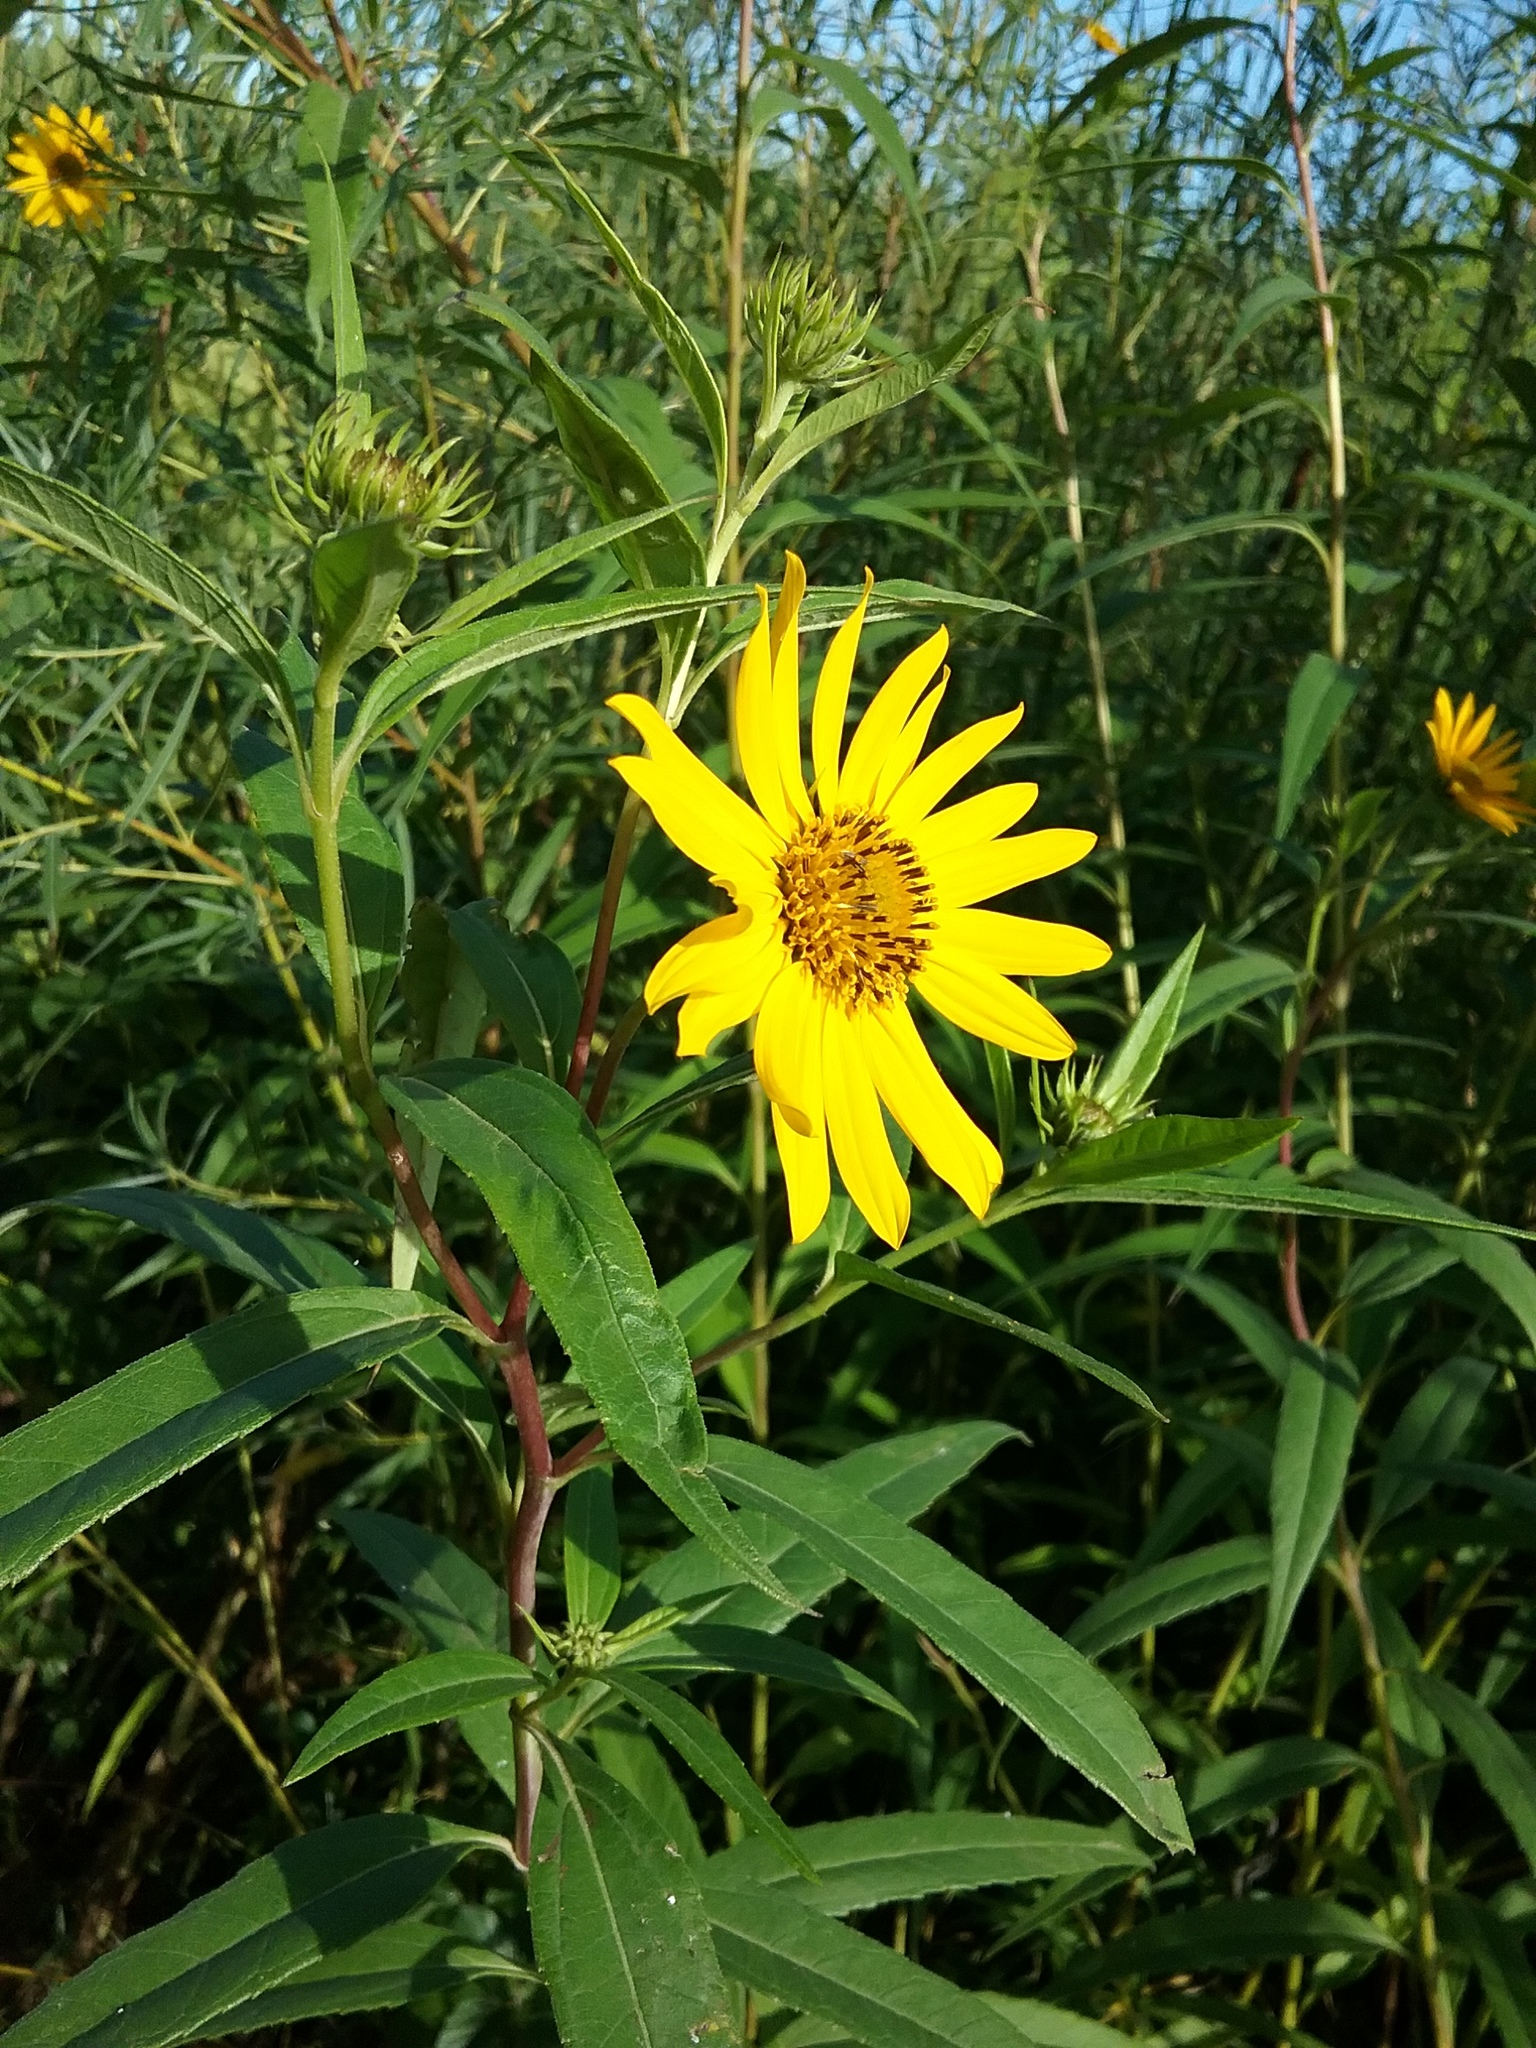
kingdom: Plantae
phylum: Tracheophyta
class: Magnoliopsida
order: Asterales
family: Asteraceae
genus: Helianthus
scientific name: Helianthus grosseserratus
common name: Sawtooth sunflower
